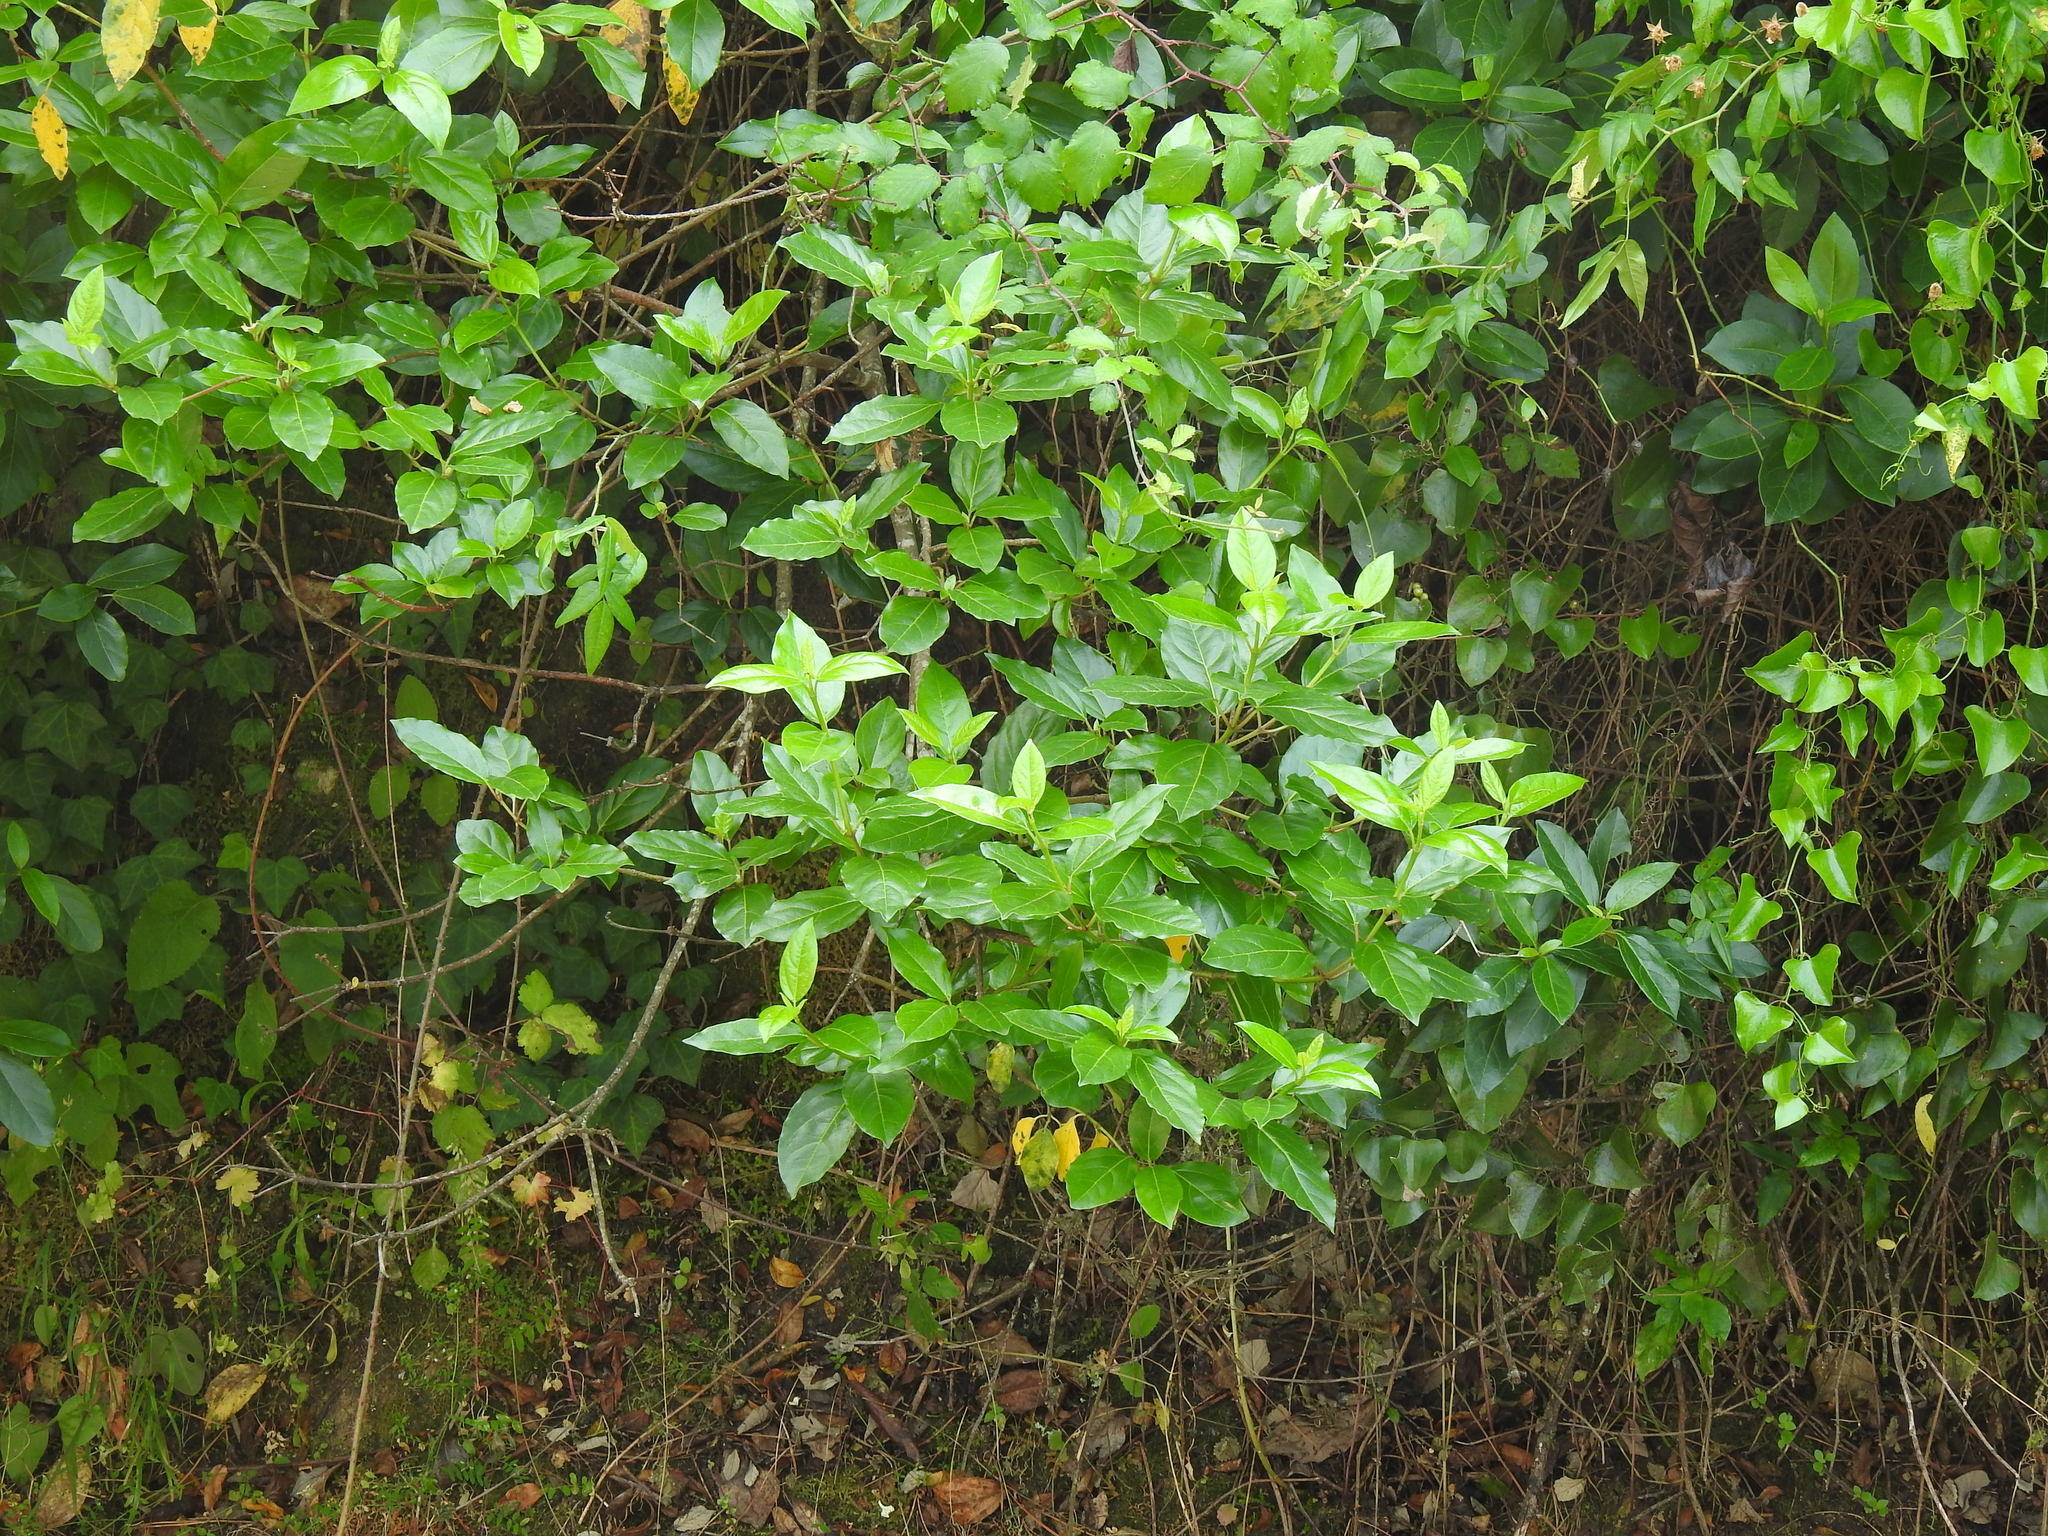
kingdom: Plantae
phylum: Tracheophyta
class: Magnoliopsida
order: Dipsacales
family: Viburnaceae
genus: Viburnum
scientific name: Viburnum tinus
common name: Laurustinus
